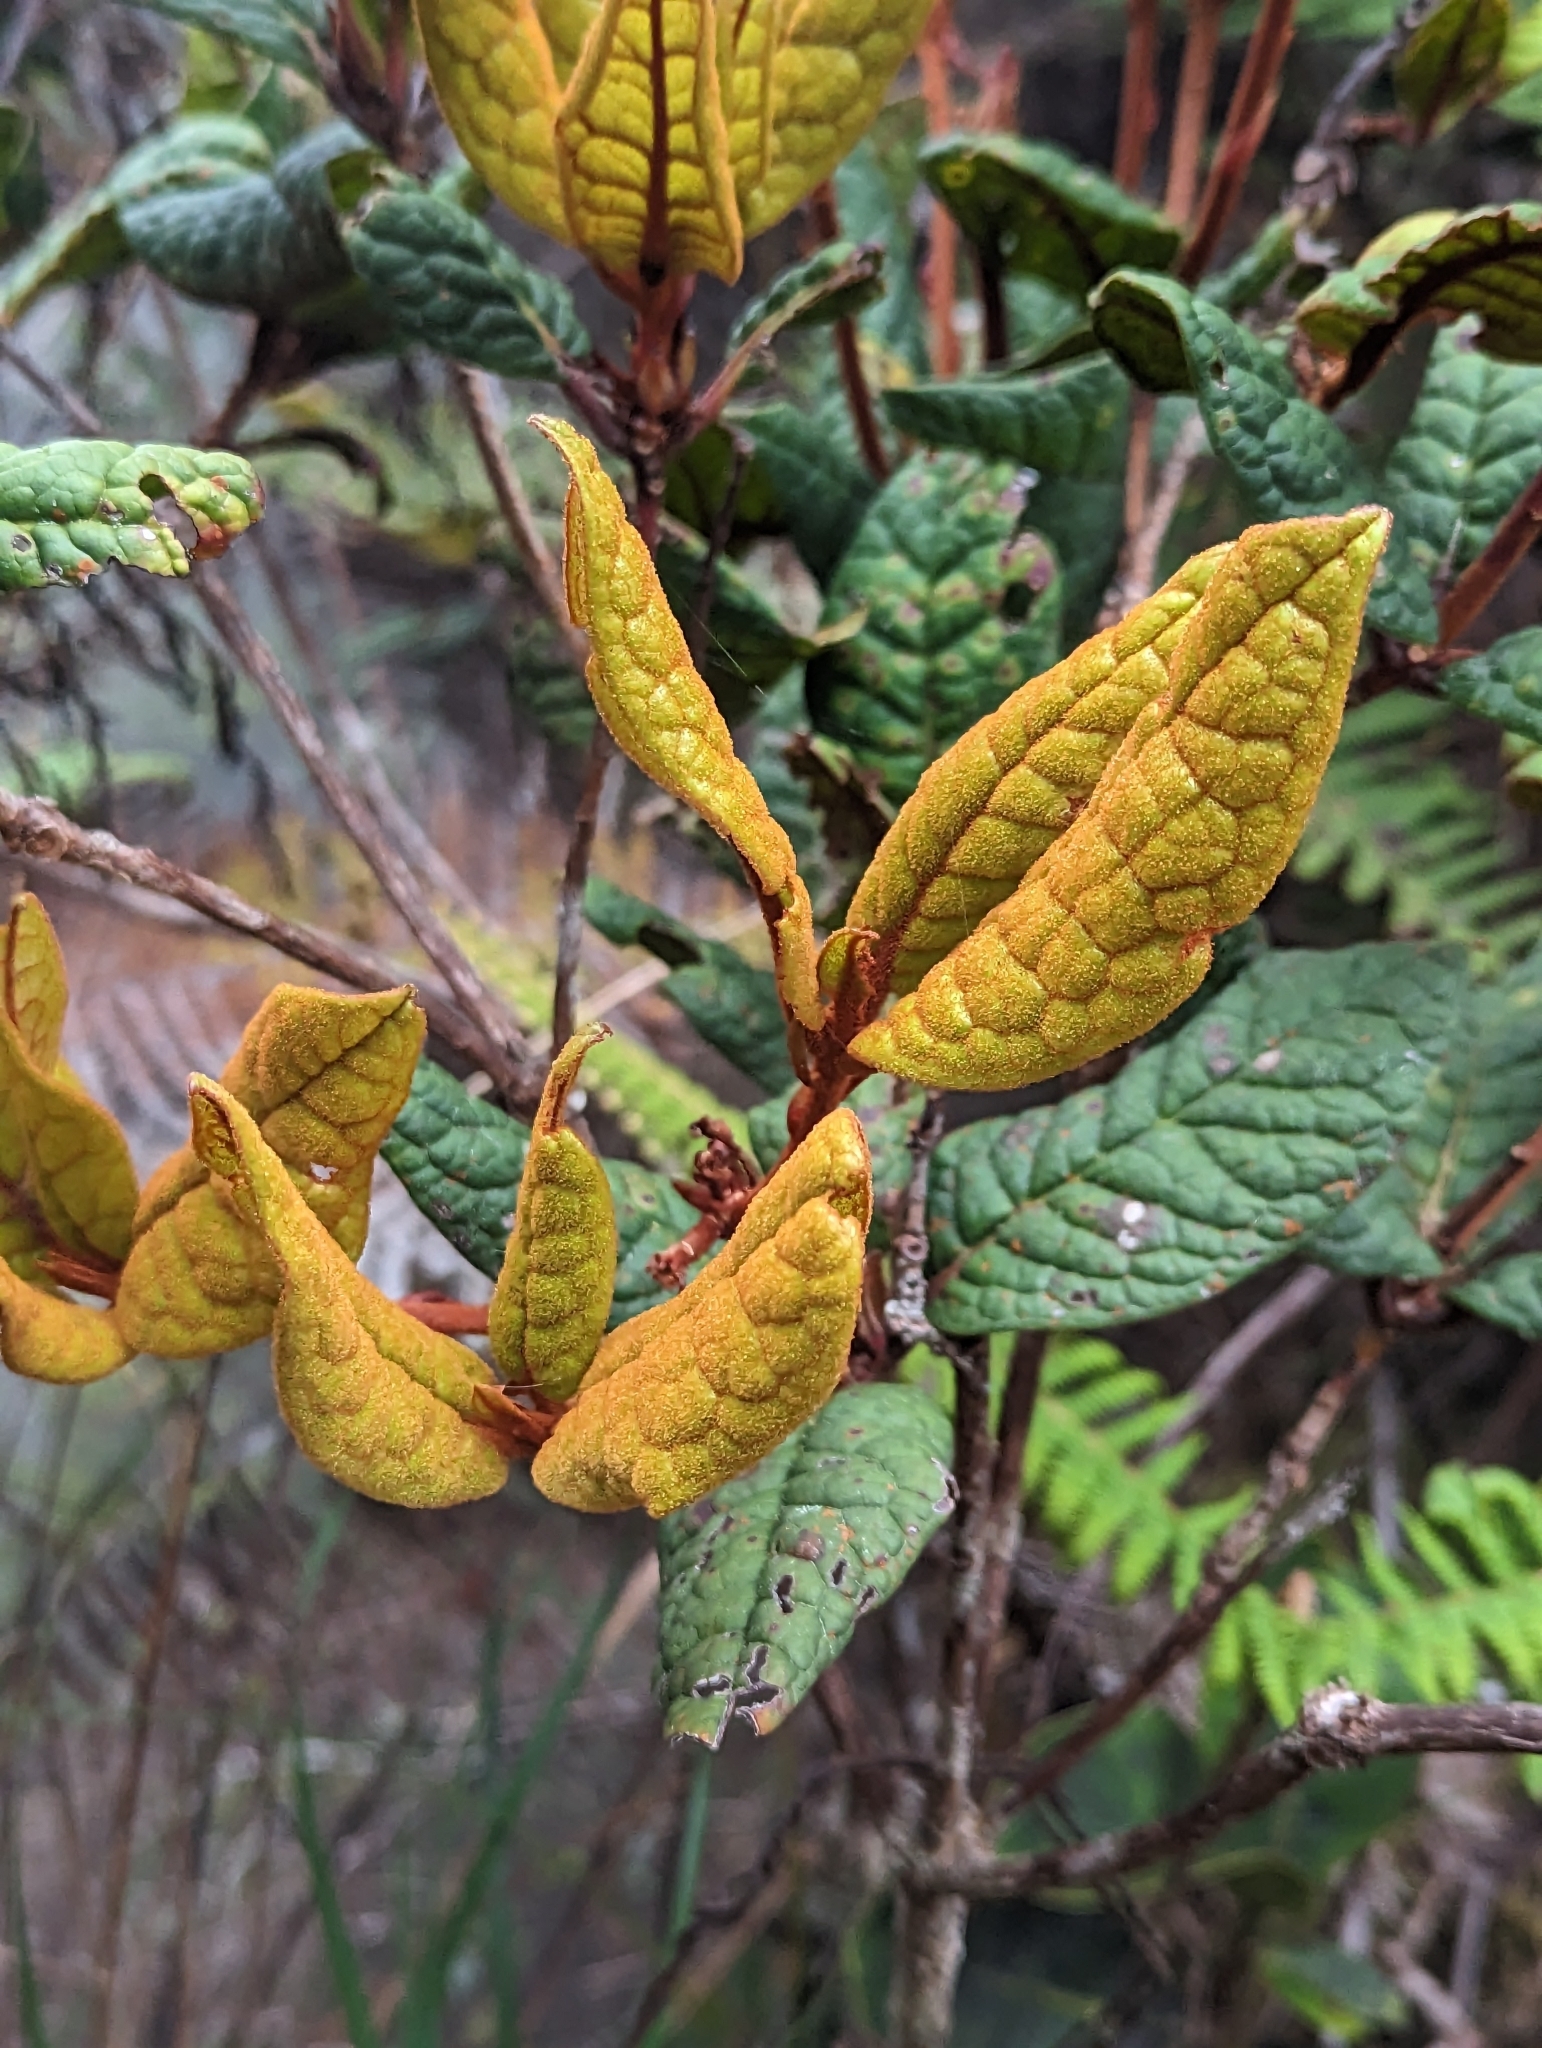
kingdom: Plantae
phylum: Tracheophyta
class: Magnoliopsida
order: Ericales
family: Ericaceae
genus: Rhododendron
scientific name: Rhododendron rugosum
